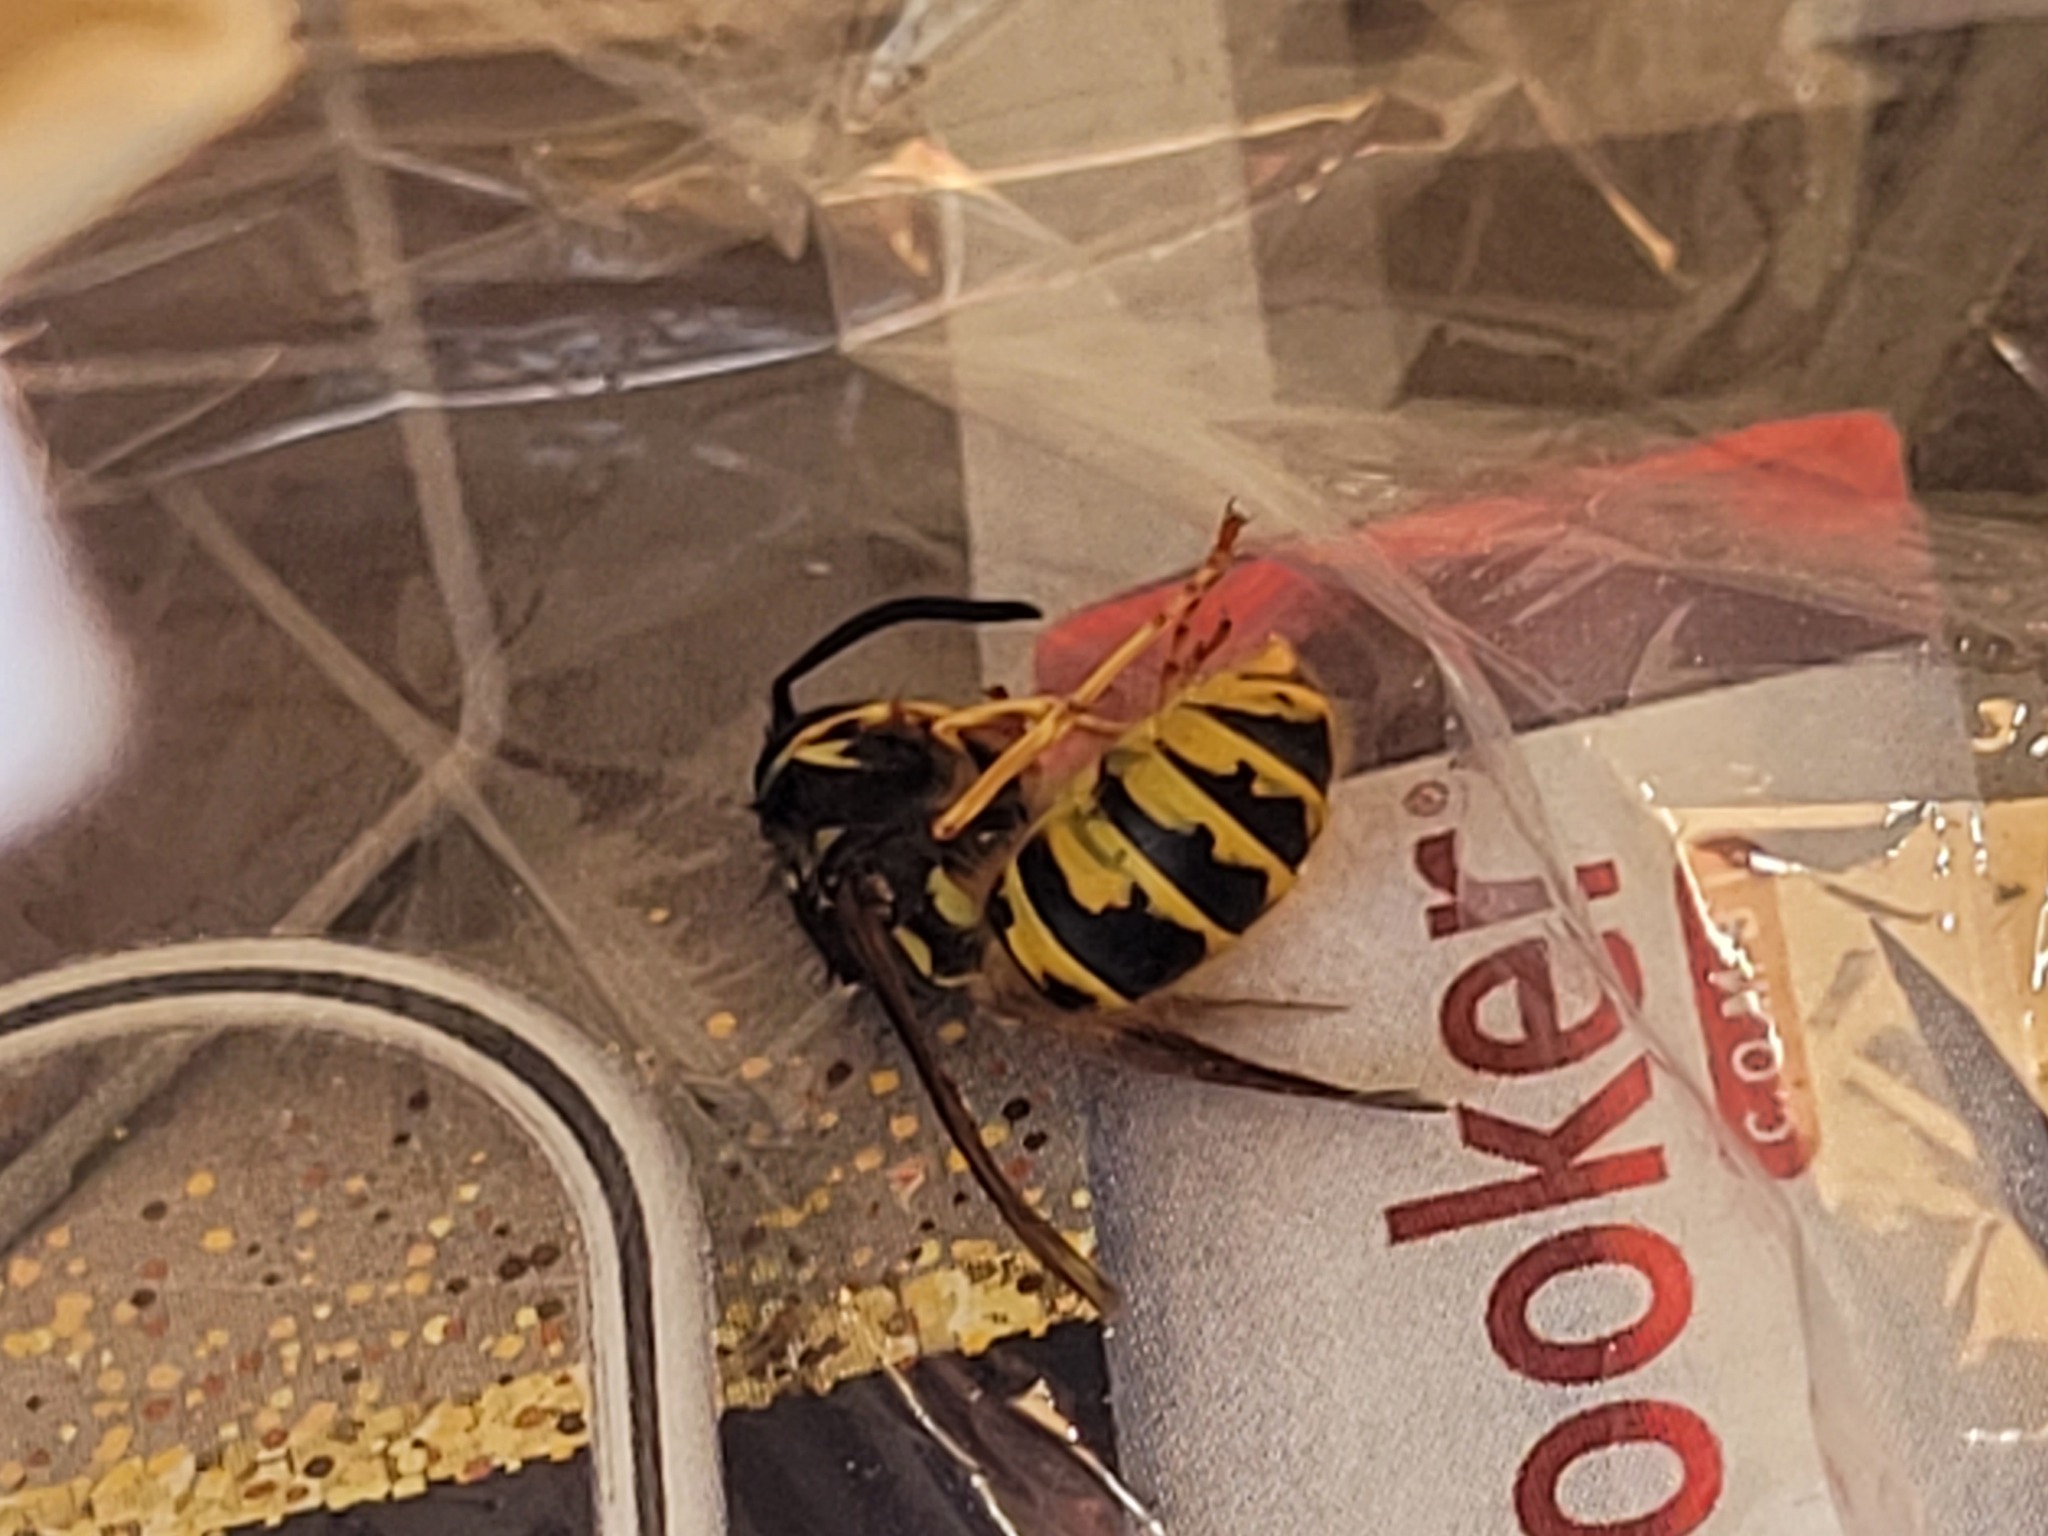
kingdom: Animalia
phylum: Arthropoda
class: Insecta
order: Hymenoptera
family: Vespidae
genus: Vespula
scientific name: Vespula vulgaris
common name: Common wasp
